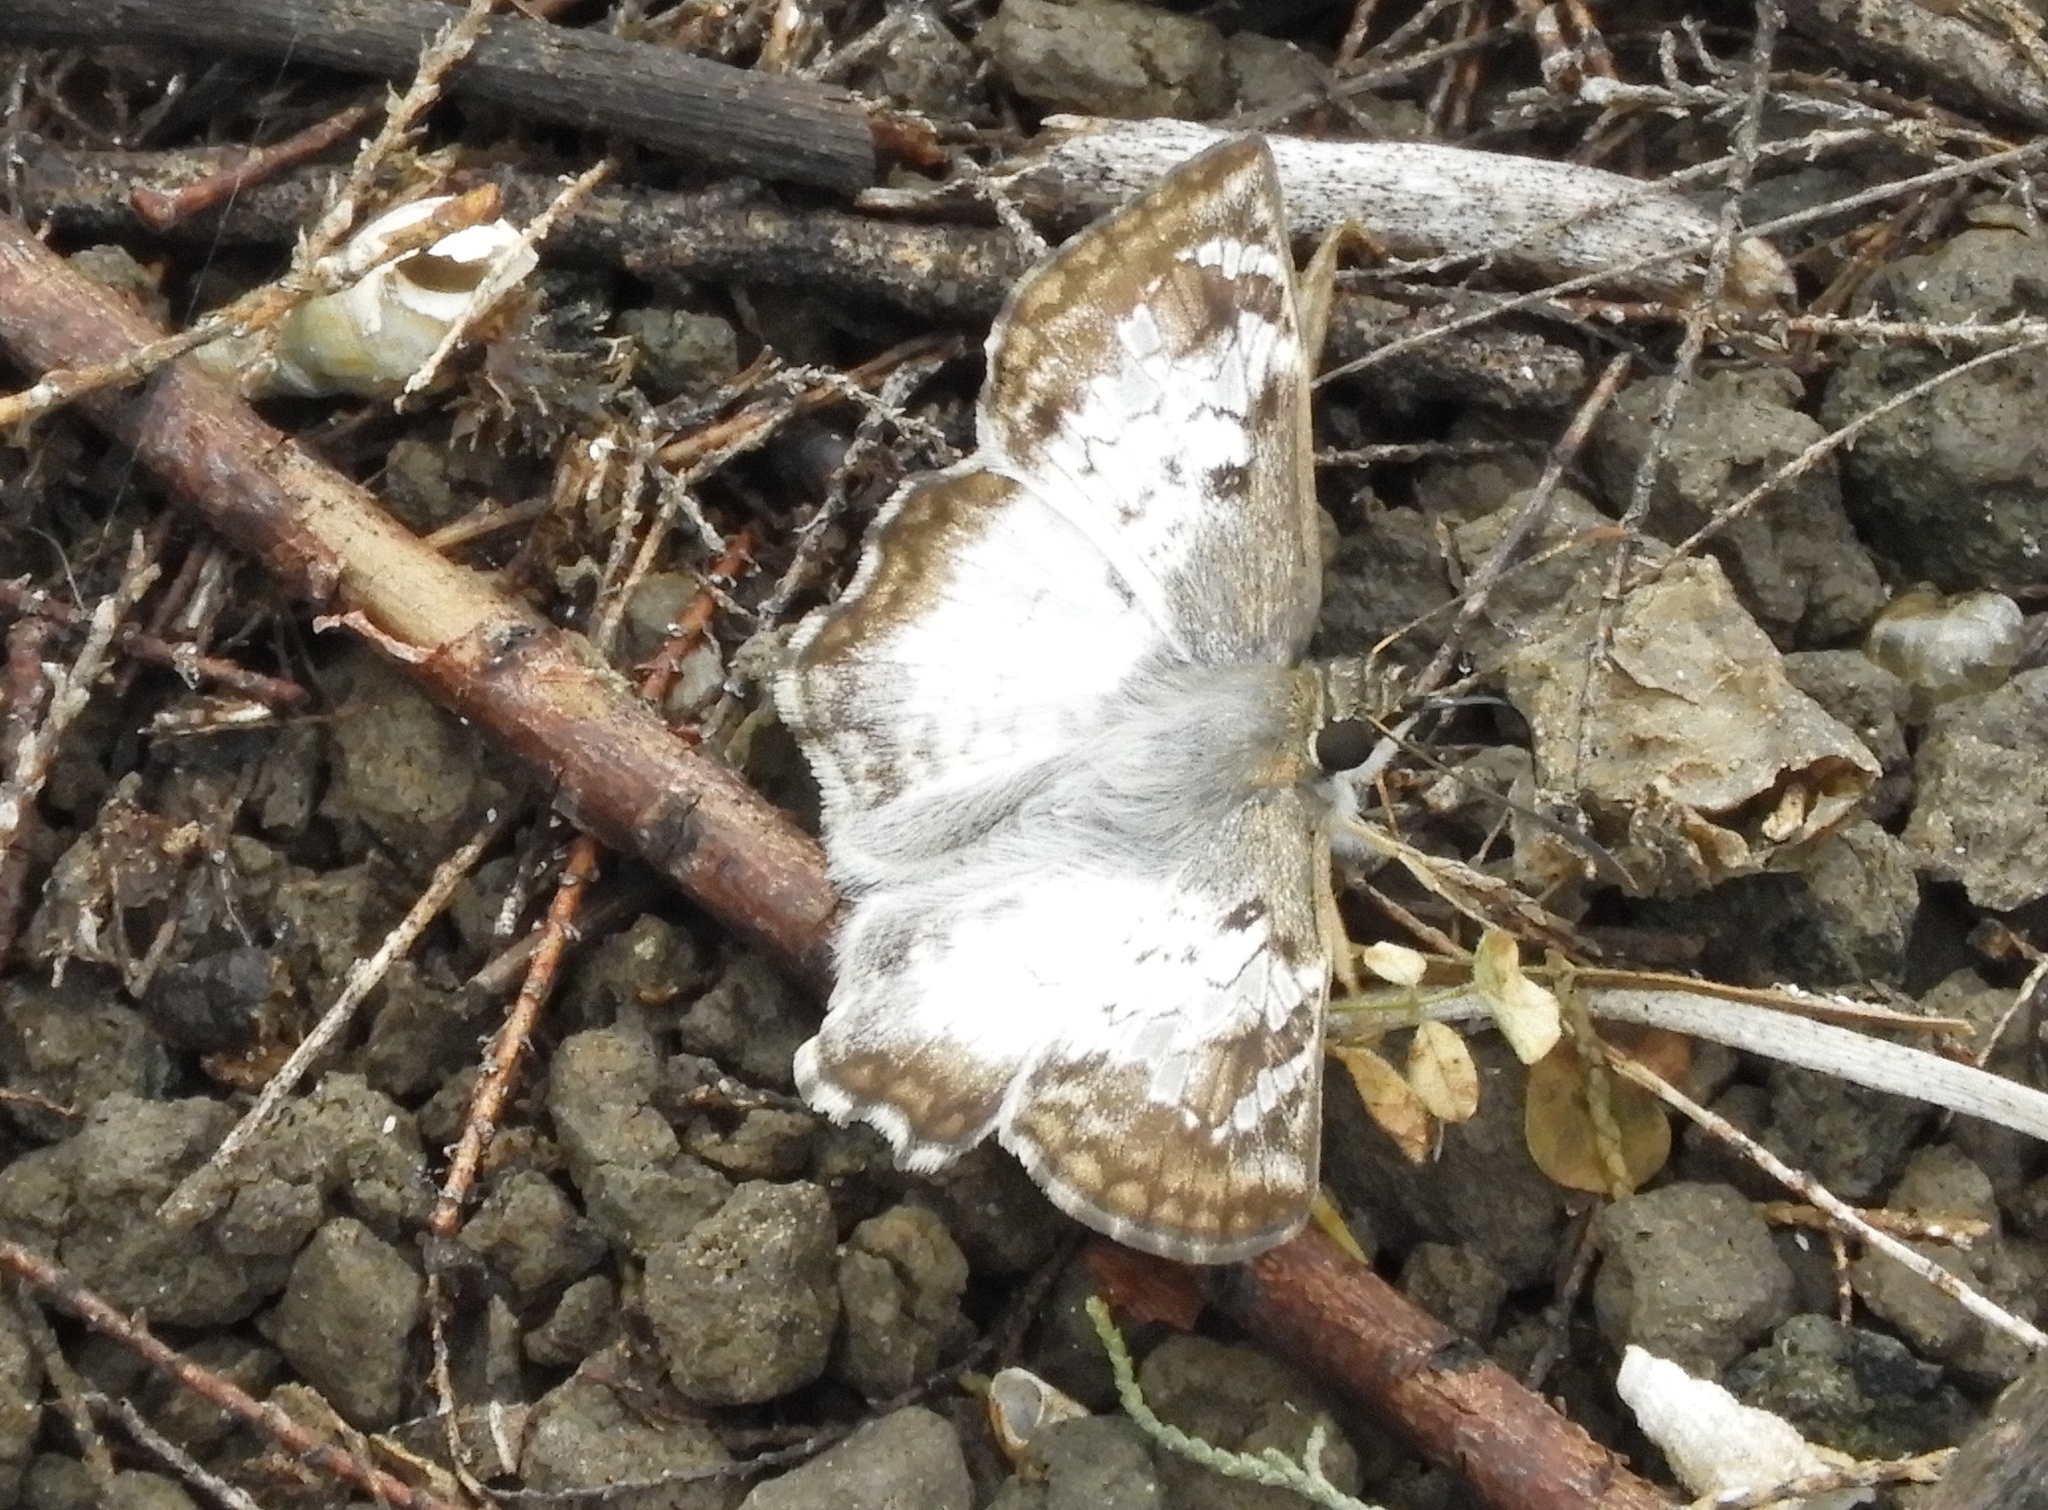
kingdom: Animalia
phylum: Arthropoda
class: Insecta
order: Lepidoptera
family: Hesperiidae
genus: Antigonus
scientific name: Antigonus emorsa
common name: White spurwing
